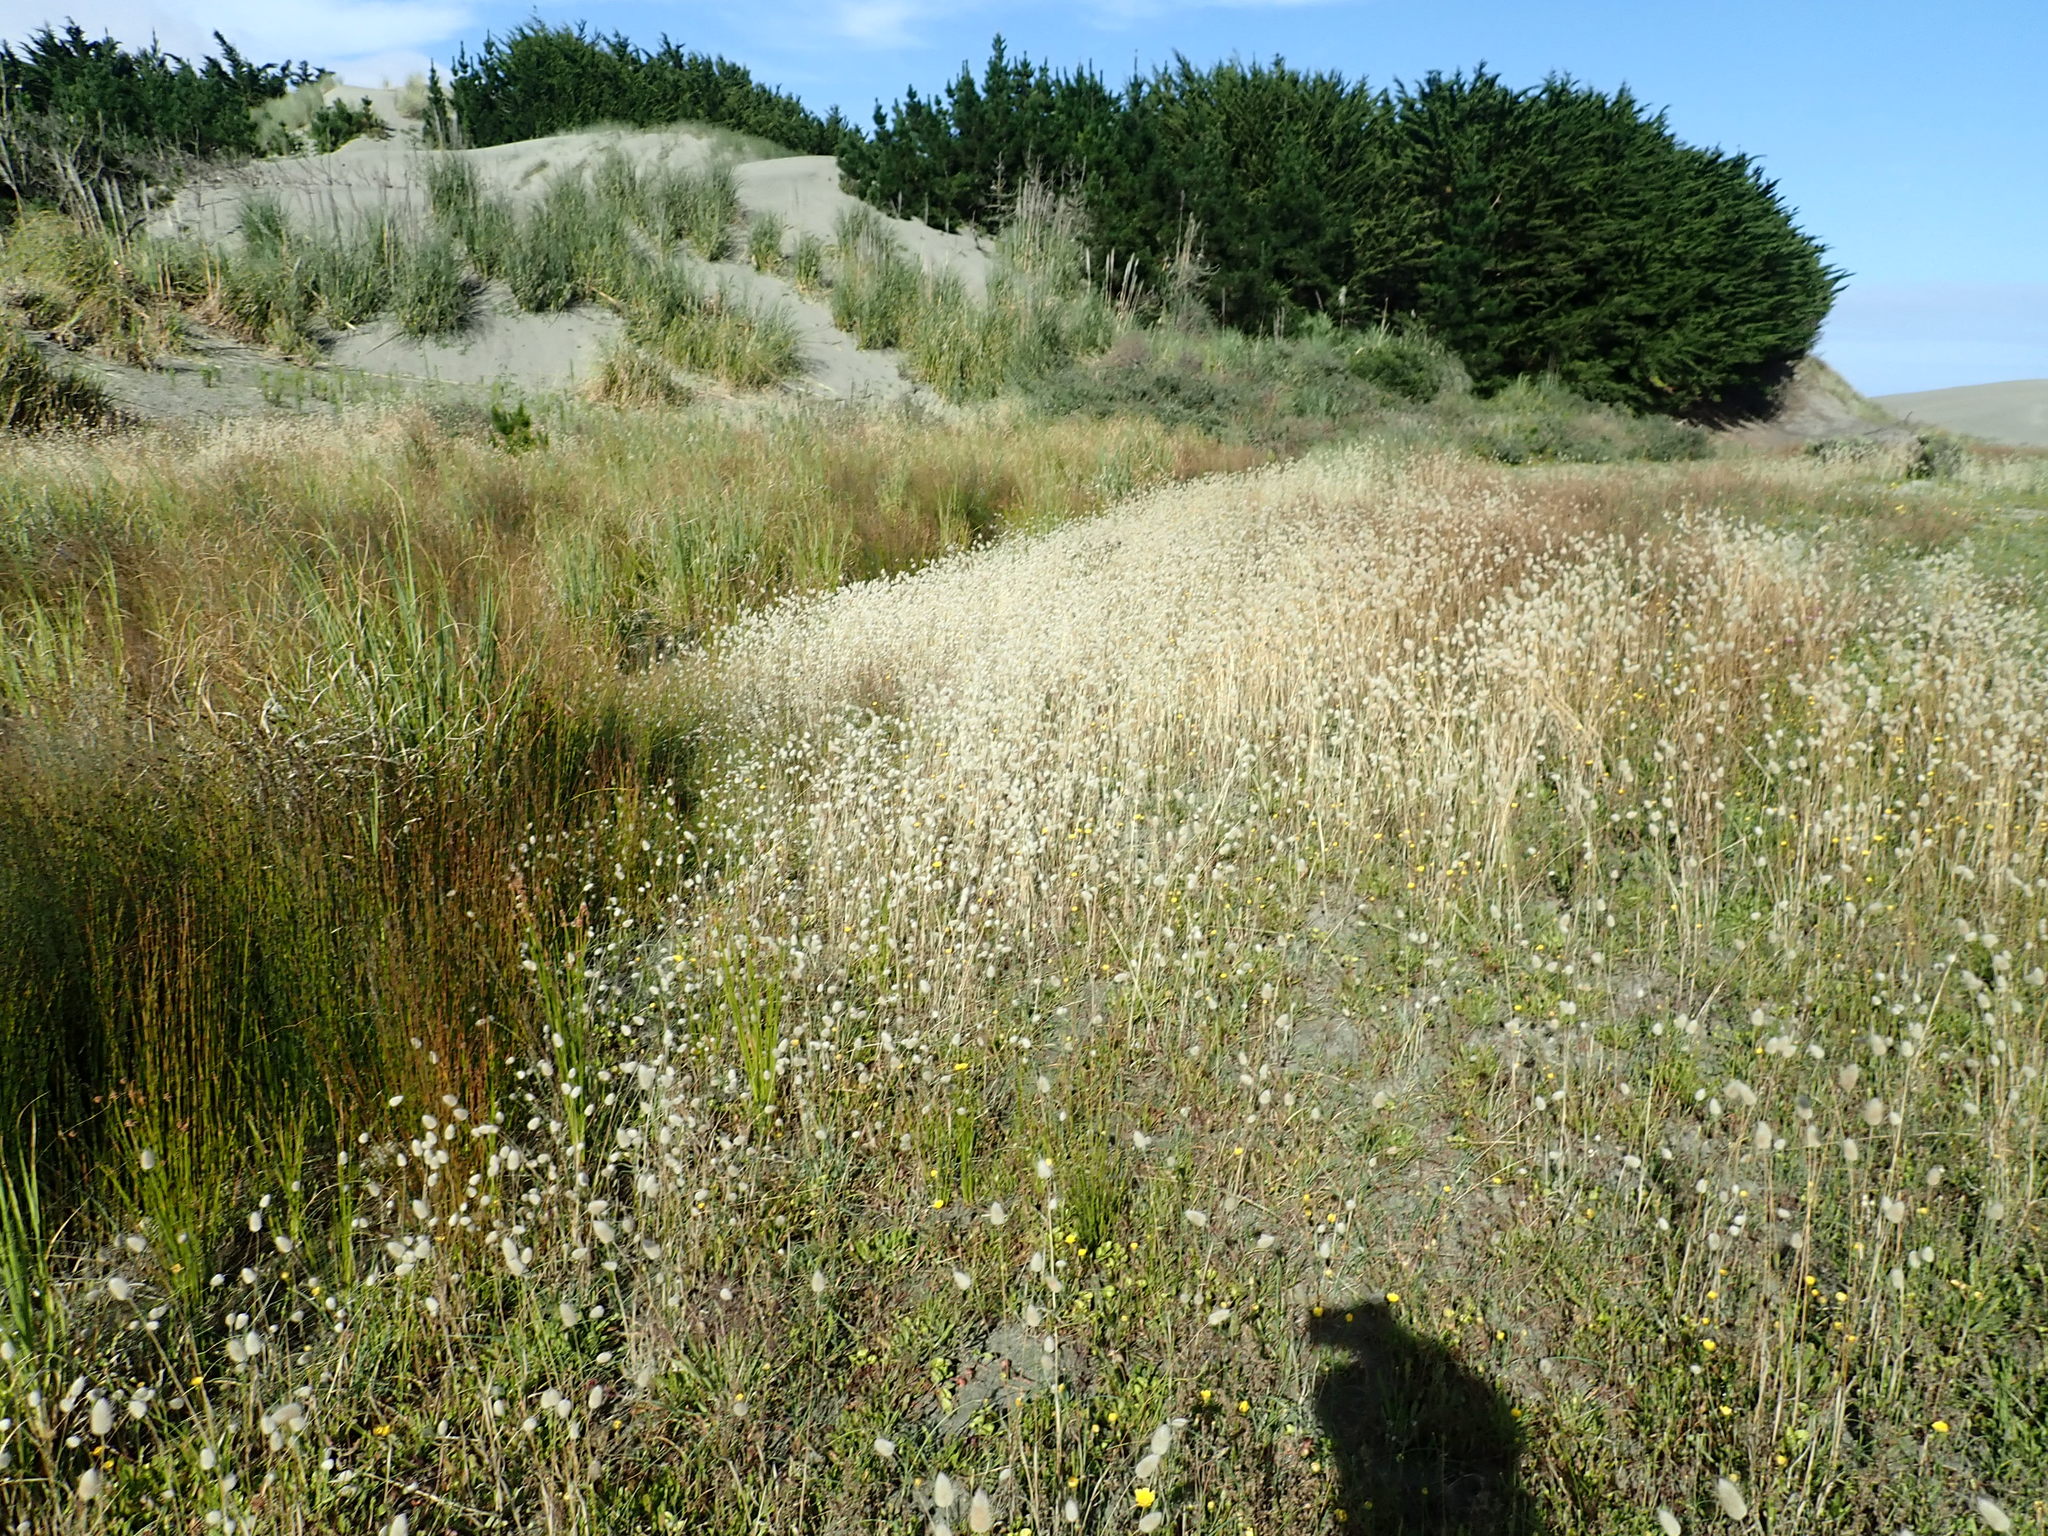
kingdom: Plantae
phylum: Tracheophyta
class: Liliopsida
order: Poales
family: Poaceae
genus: Lagurus
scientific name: Lagurus ovatus
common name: Hare's-tail
